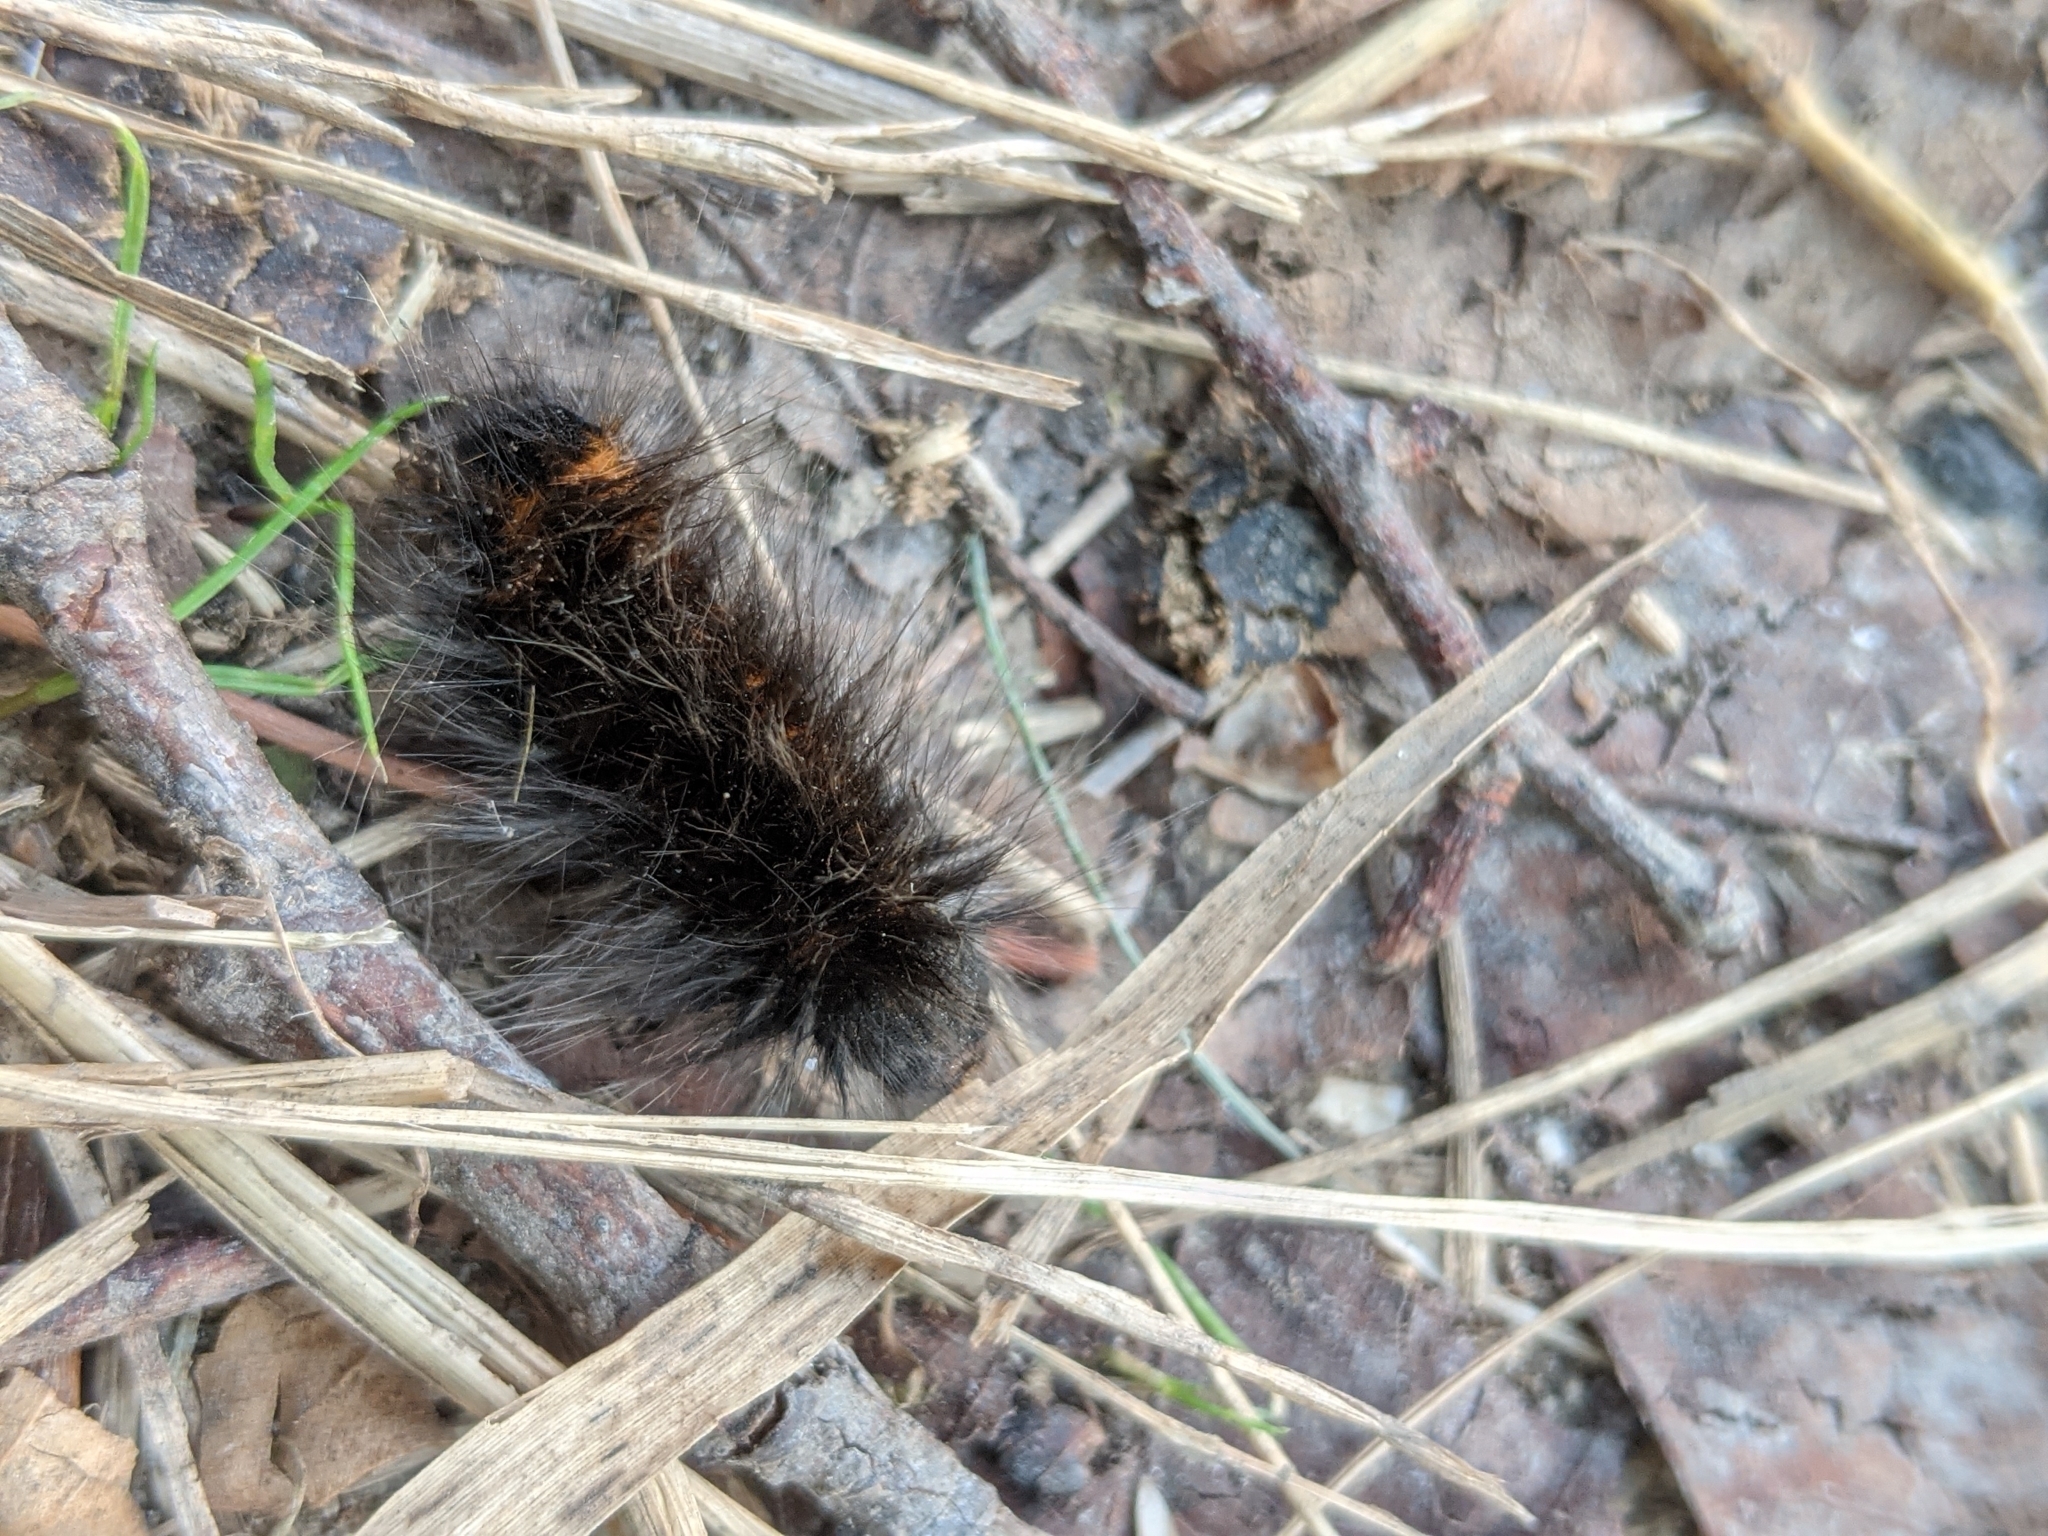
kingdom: Animalia
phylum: Arthropoda
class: Insecta
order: Lepidoptera
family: Lasiocampidae
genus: Macrothylacia
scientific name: Macrothylacia rubi
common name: Fox moth
